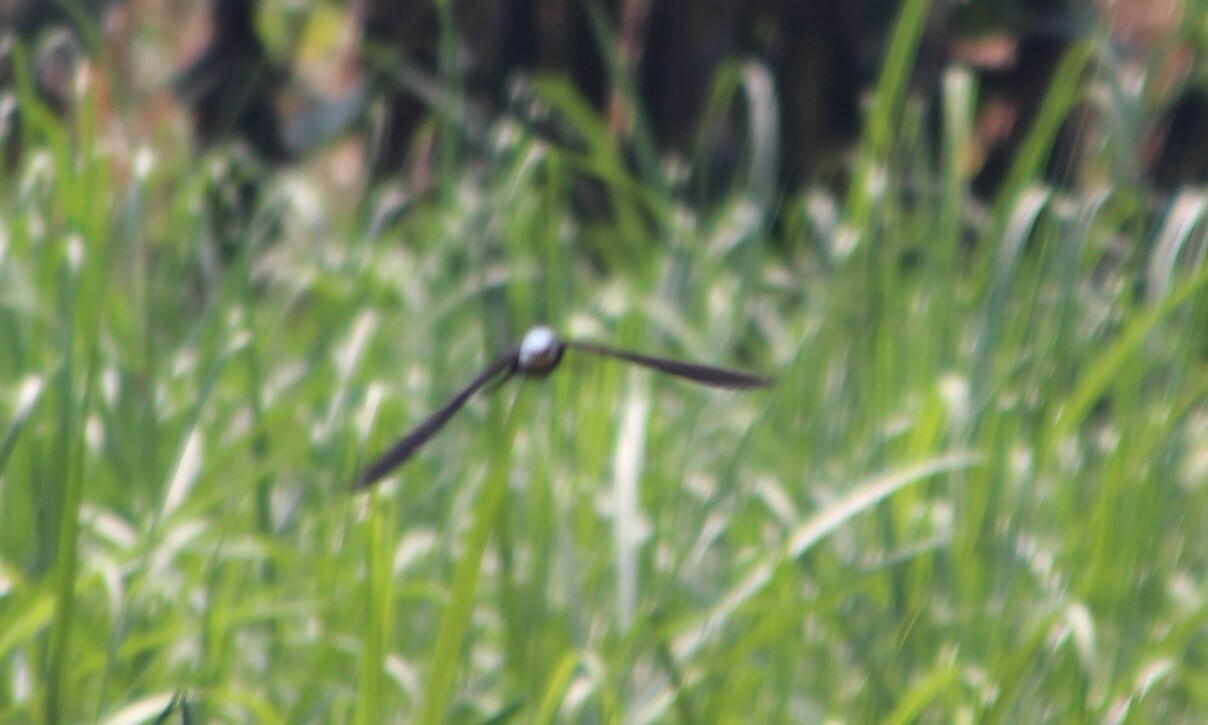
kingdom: Animalia
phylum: Chordata
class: Aves
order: Passeriformes
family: Hirundinidae
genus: Psalidoprocne
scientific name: Psalidoprocne albiceps
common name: White-headed saw-wing
